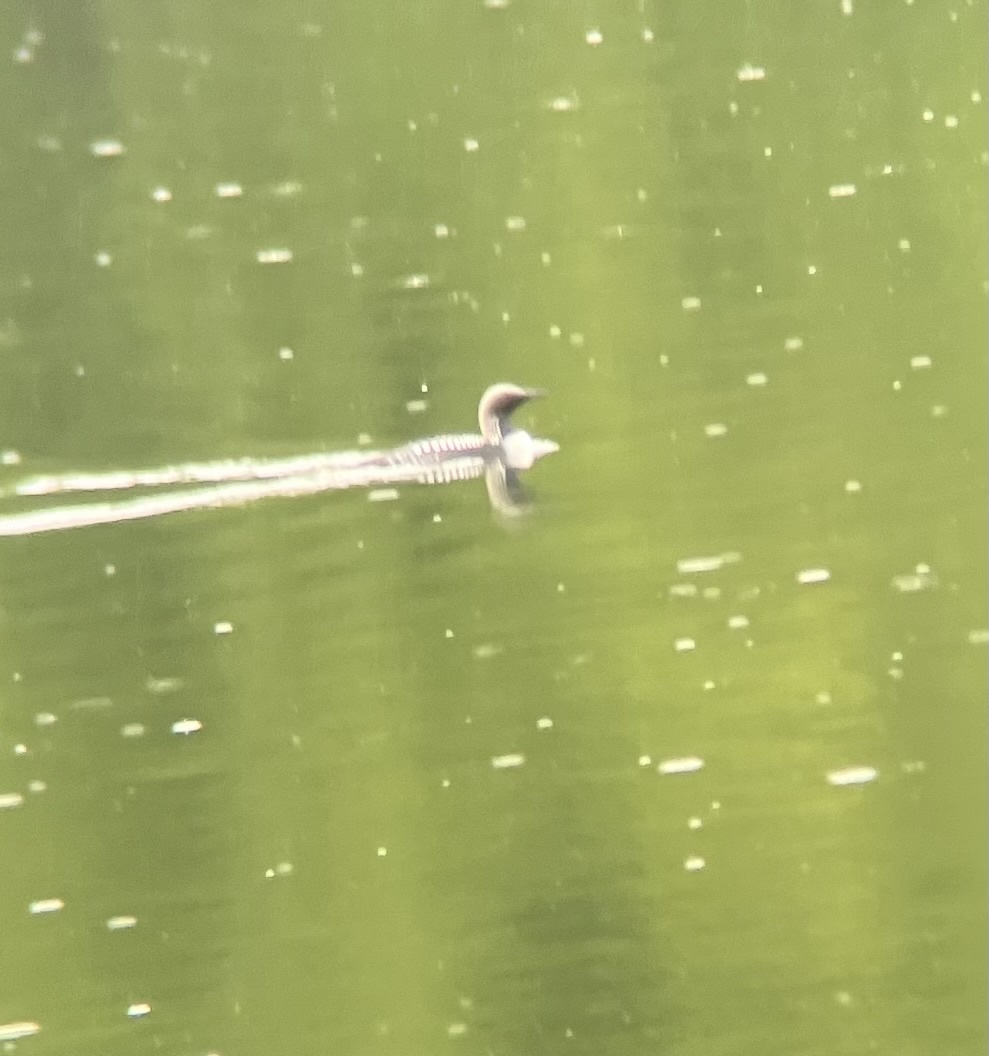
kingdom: Animalia
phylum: Chordata
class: Aves
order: Gaviiformes
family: Gaviidae
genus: Gavia
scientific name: Gavia pacifica
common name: Pacific loon
